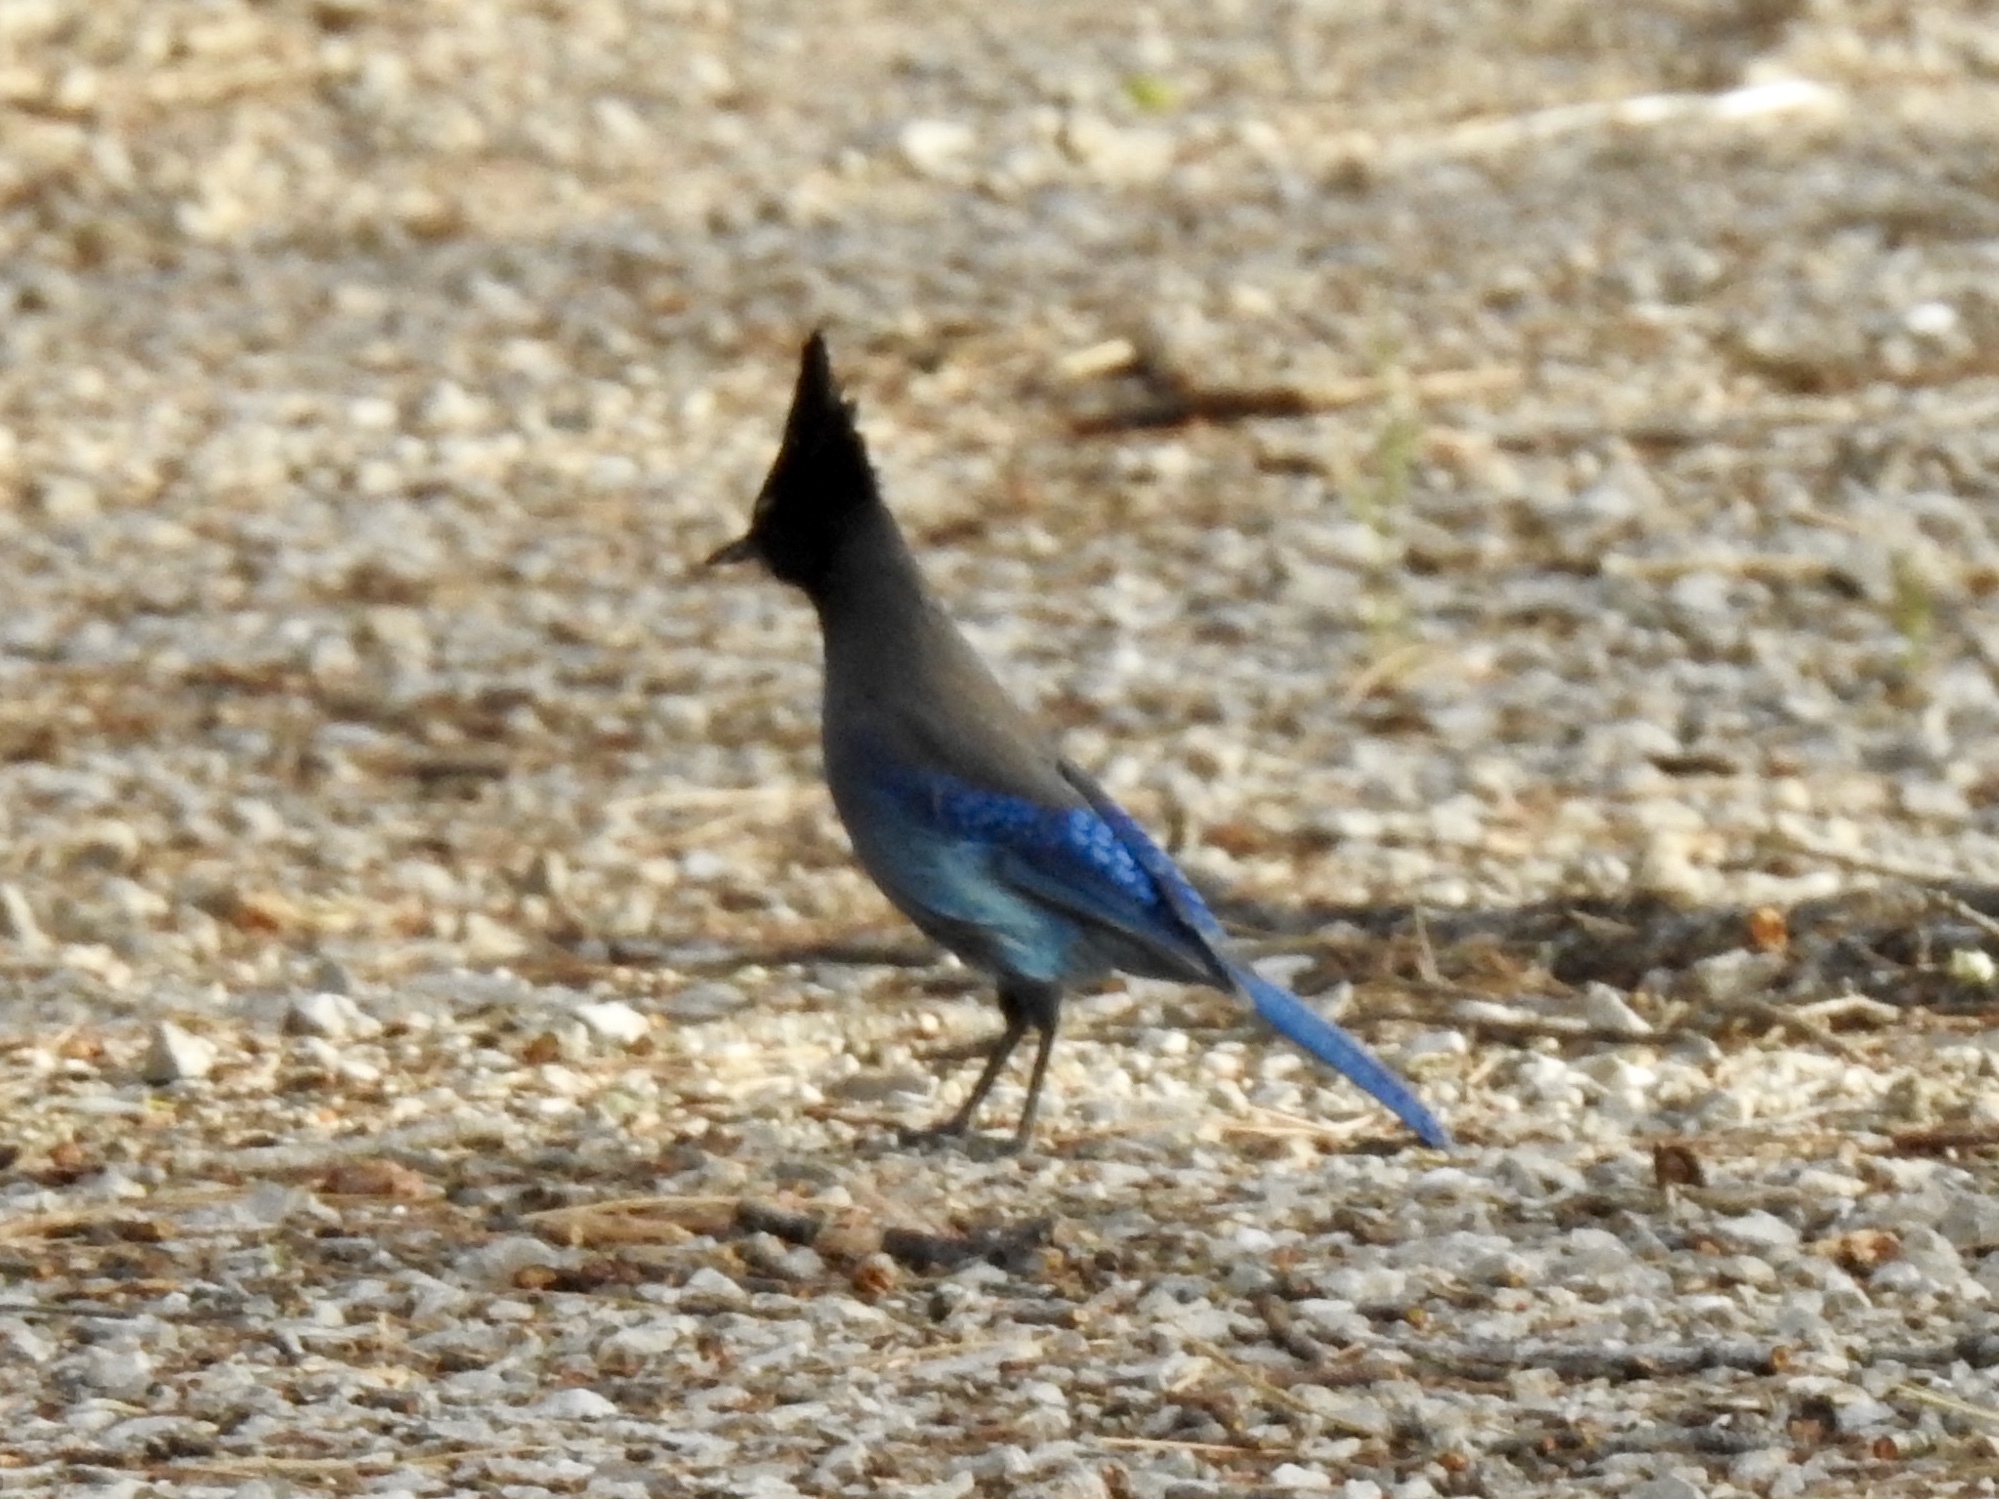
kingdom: Animalia
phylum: Chordata
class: Aves
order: Passeriformes
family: Corvidae
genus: Cyanocitta
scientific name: Cyanocitta stelleri
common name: Steller's jay
